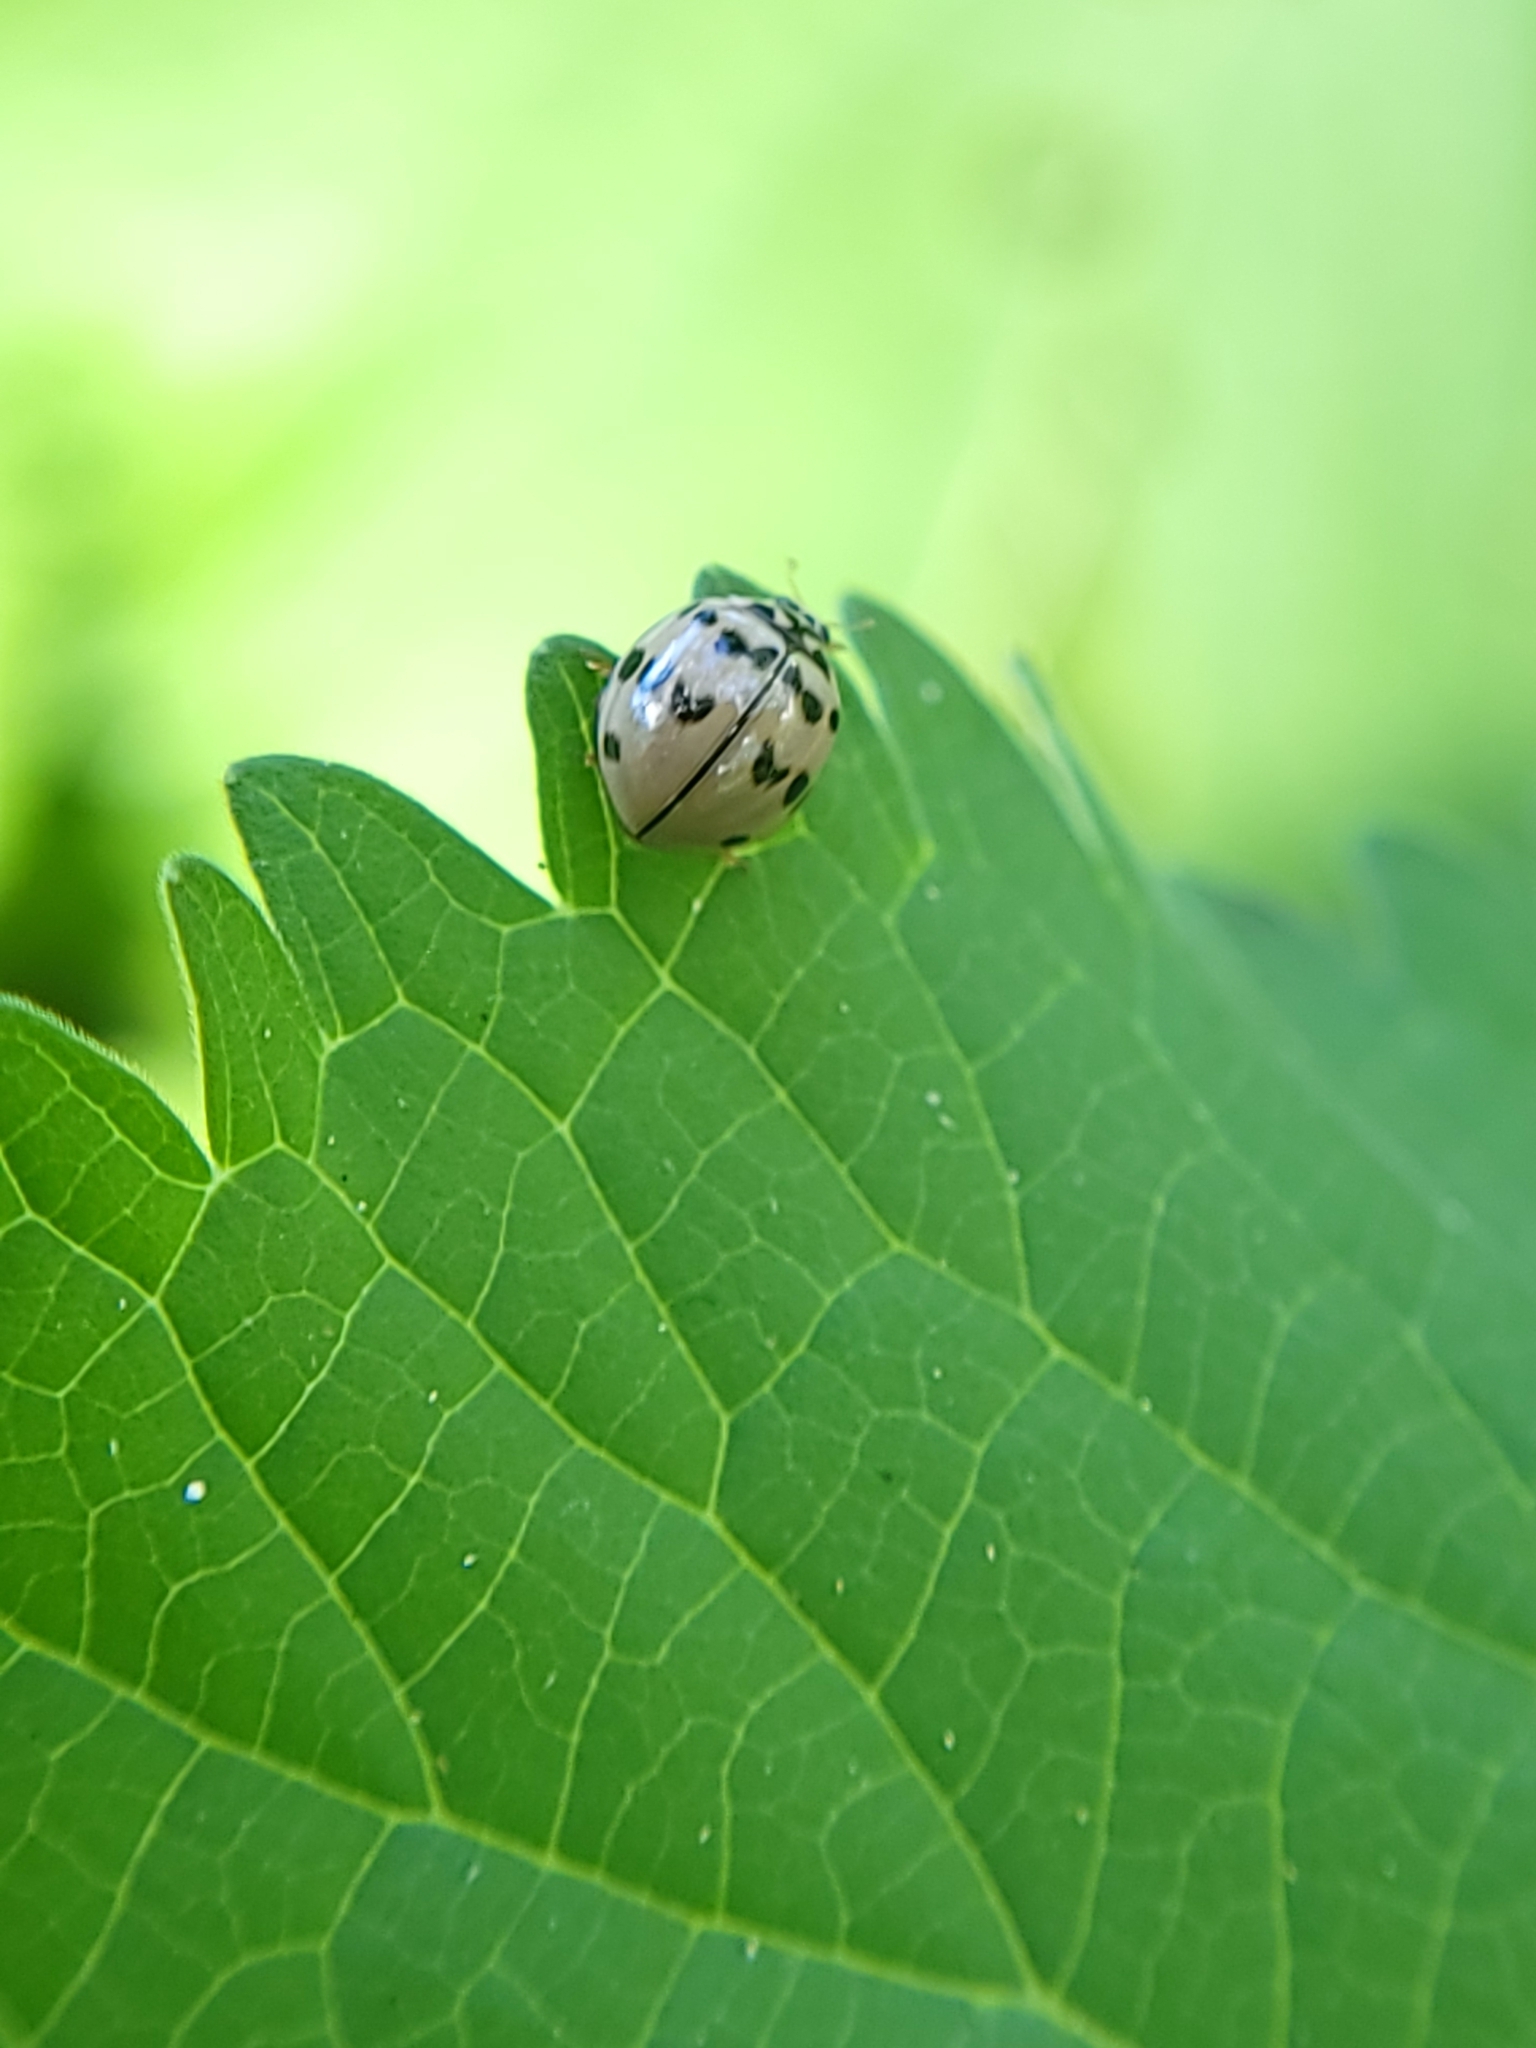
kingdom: Animalia
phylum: Arthropoda
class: Insecta
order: Coleoptera
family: Coccinellidae
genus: Olla
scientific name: Olla v-nigrum
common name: Ashy gray lady beetle
